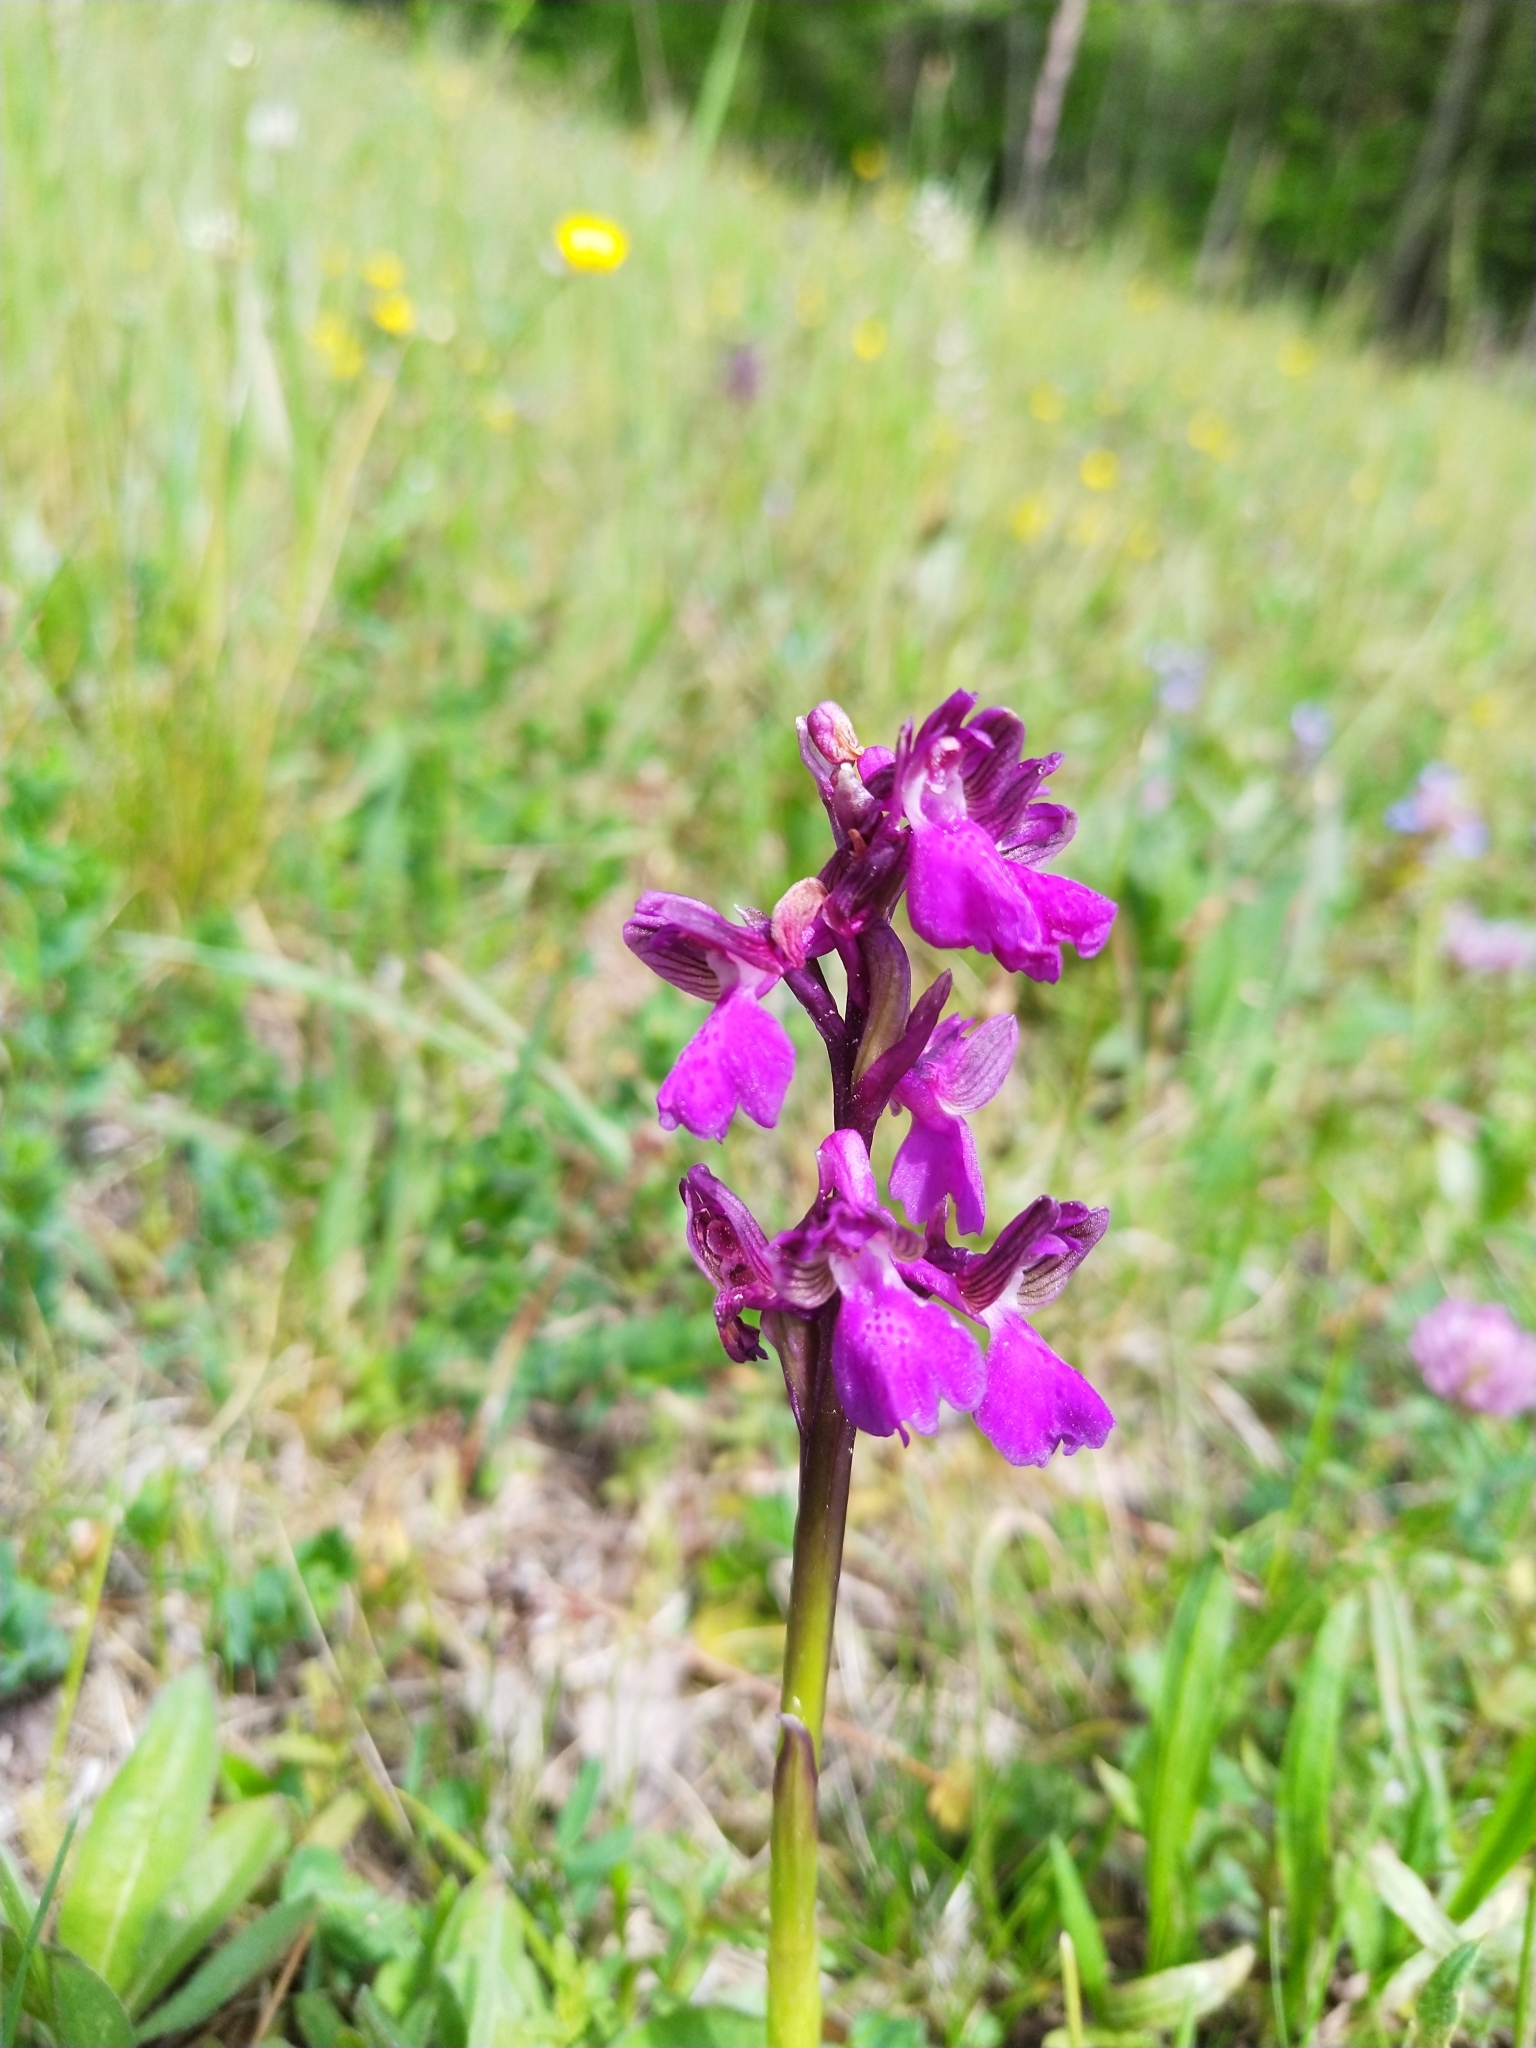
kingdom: Plantae
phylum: Tracheophyta
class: Liliopsida
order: Asparagales
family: Orchidaceae
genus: Orchis
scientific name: Orchis mascula
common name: Early-purple orchid
